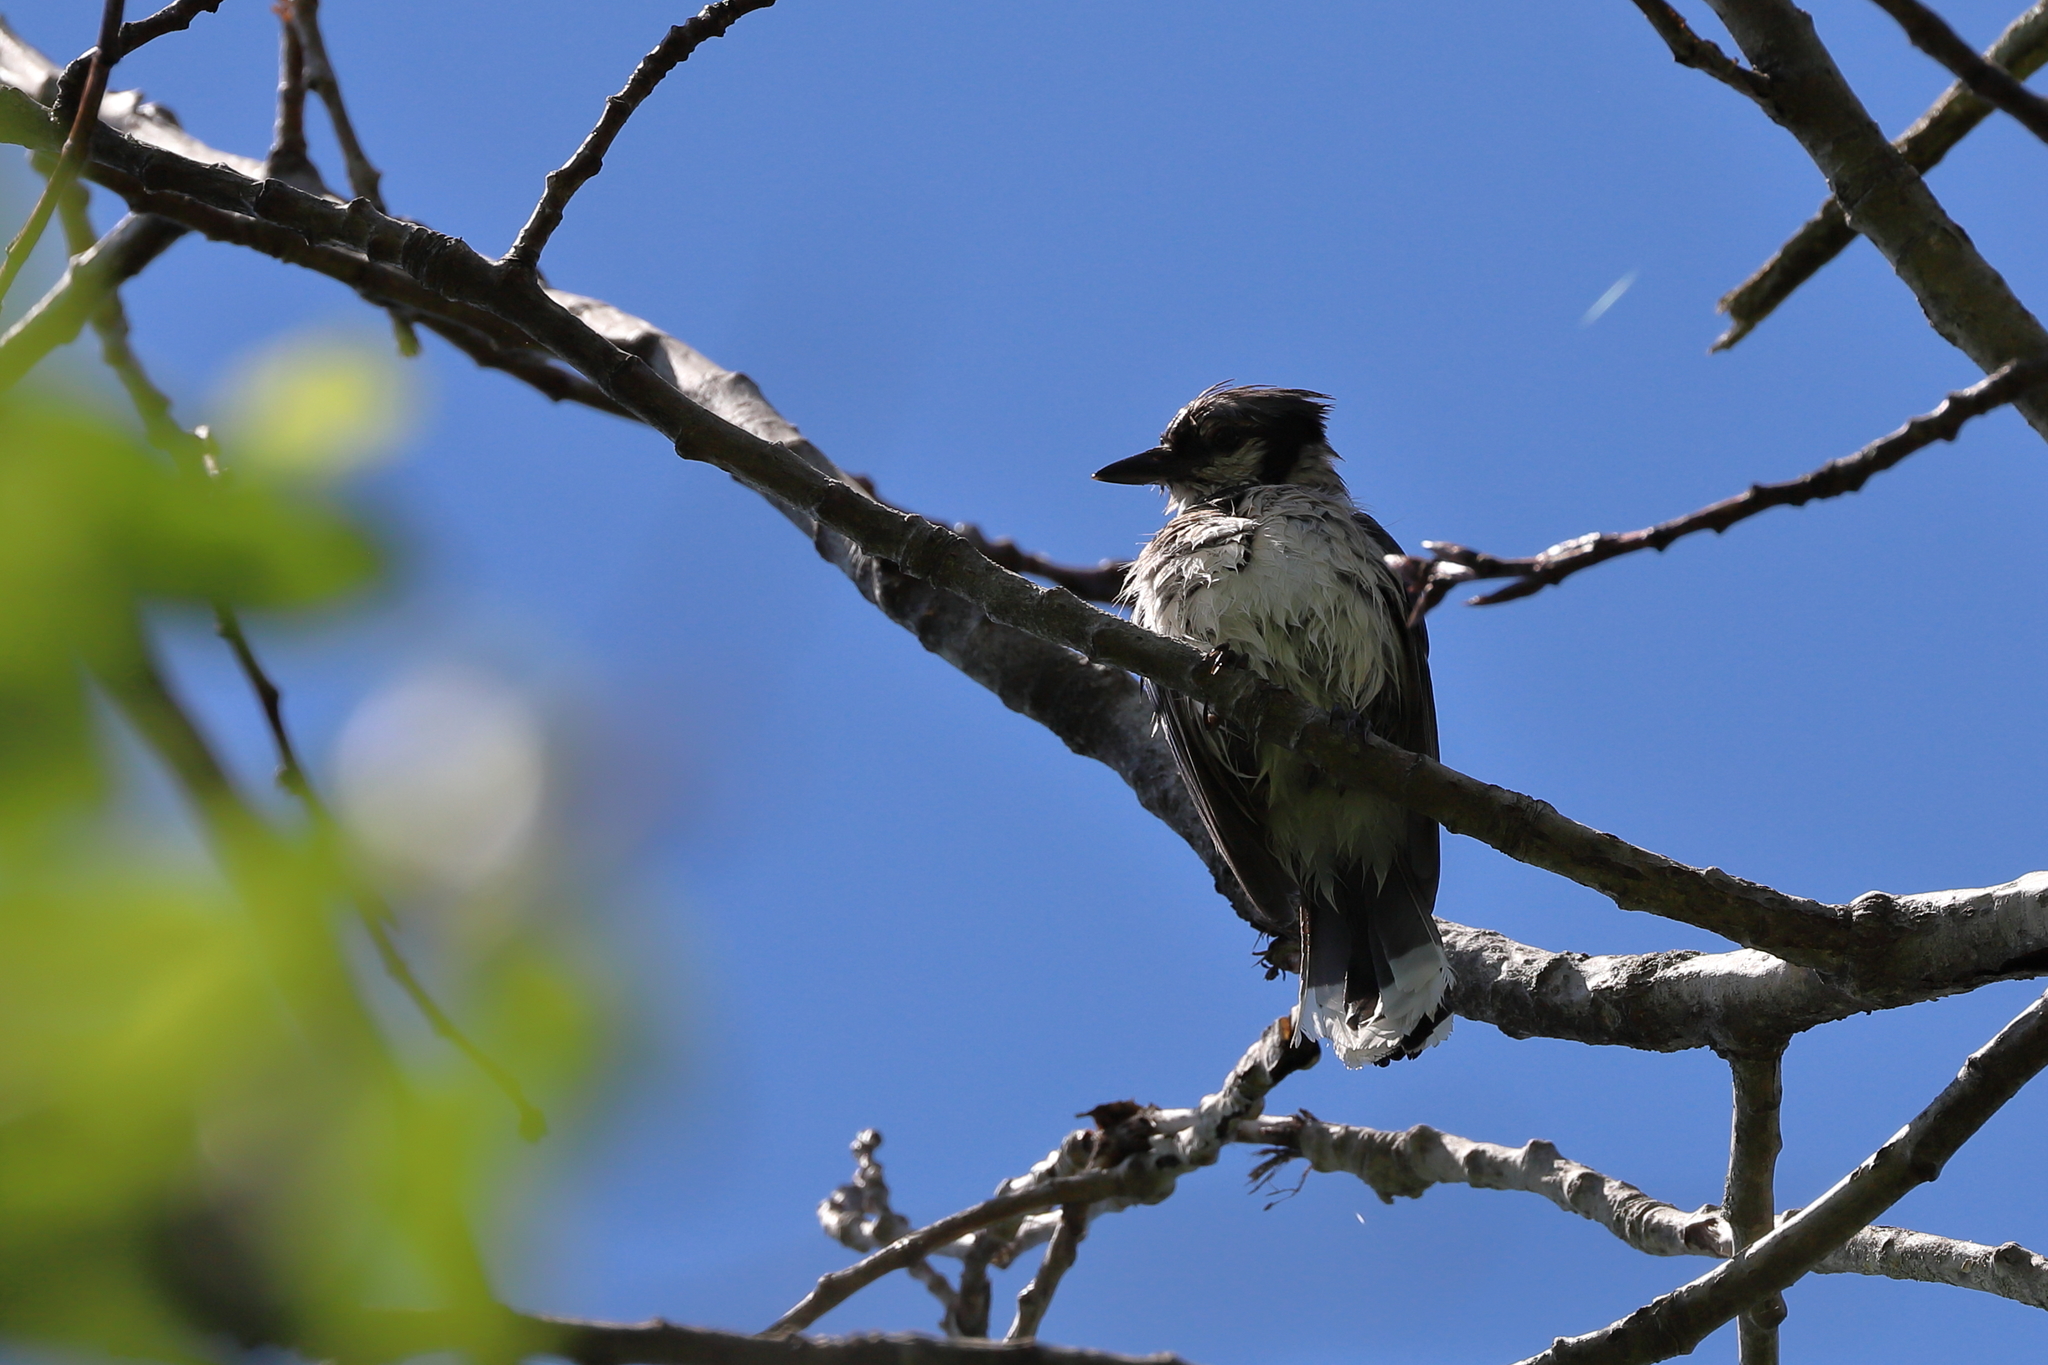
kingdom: Animalia
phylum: Chordata
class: Aves
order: Passeriformes
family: Corvidae
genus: Cyanocitta
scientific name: Cyanocitta cristata
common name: Blue jay
